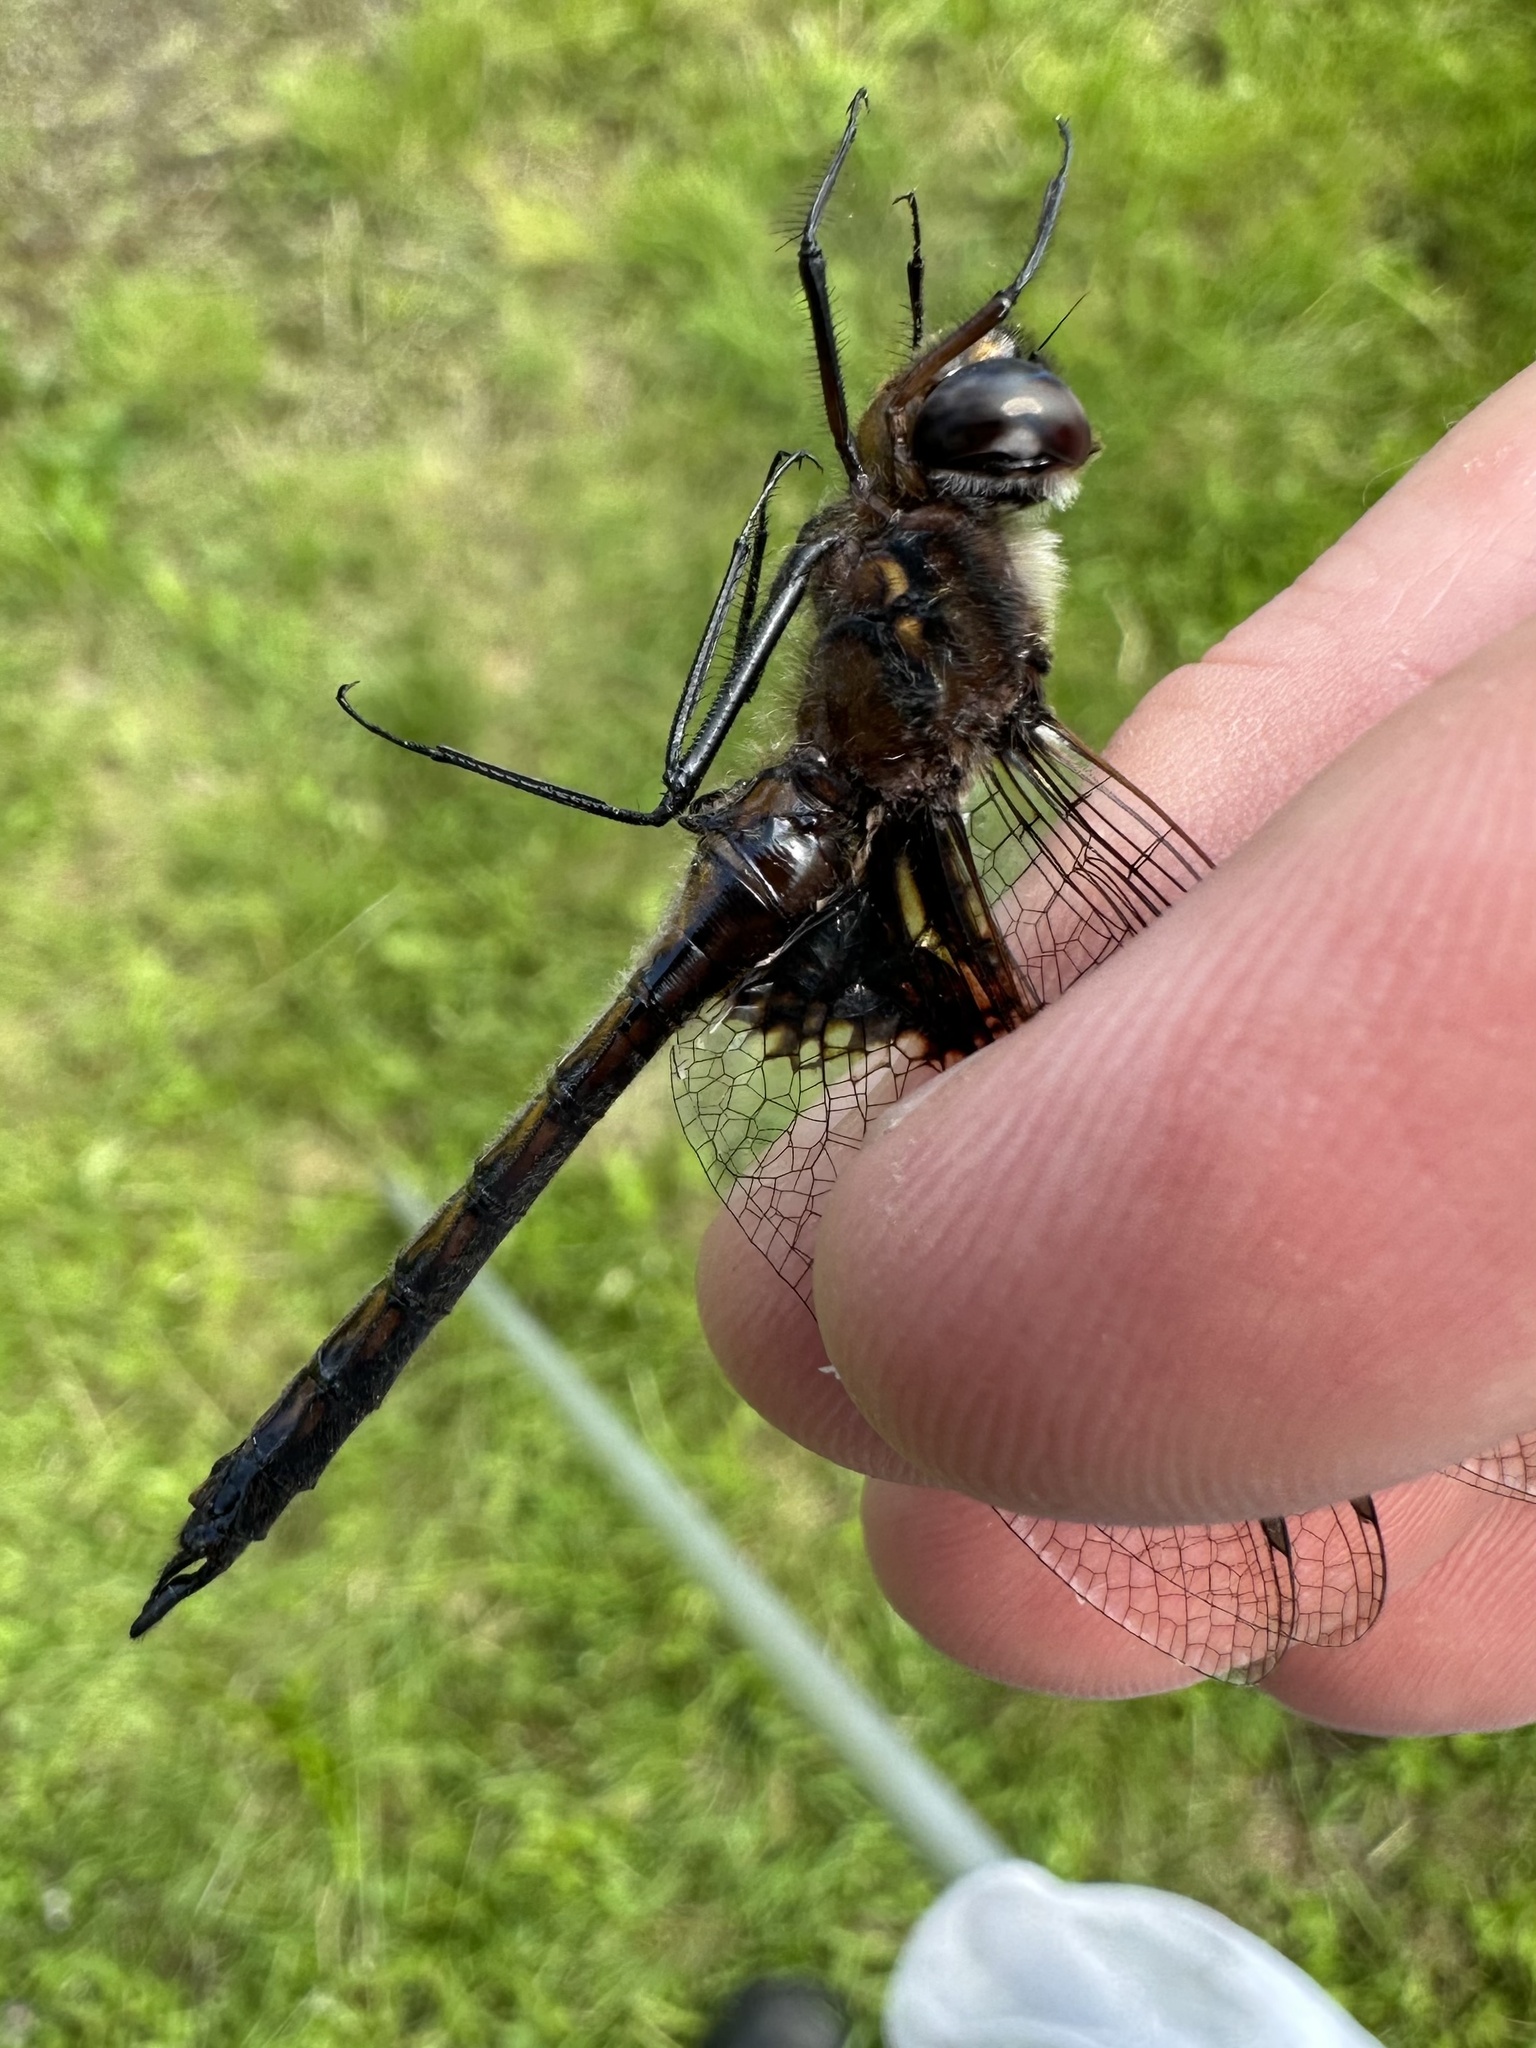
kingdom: Animalia
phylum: Arthropoda
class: Insecta
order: Odonata
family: Corduliidae
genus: Epitheca
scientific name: Epitheca cynosura
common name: Common baskettail
